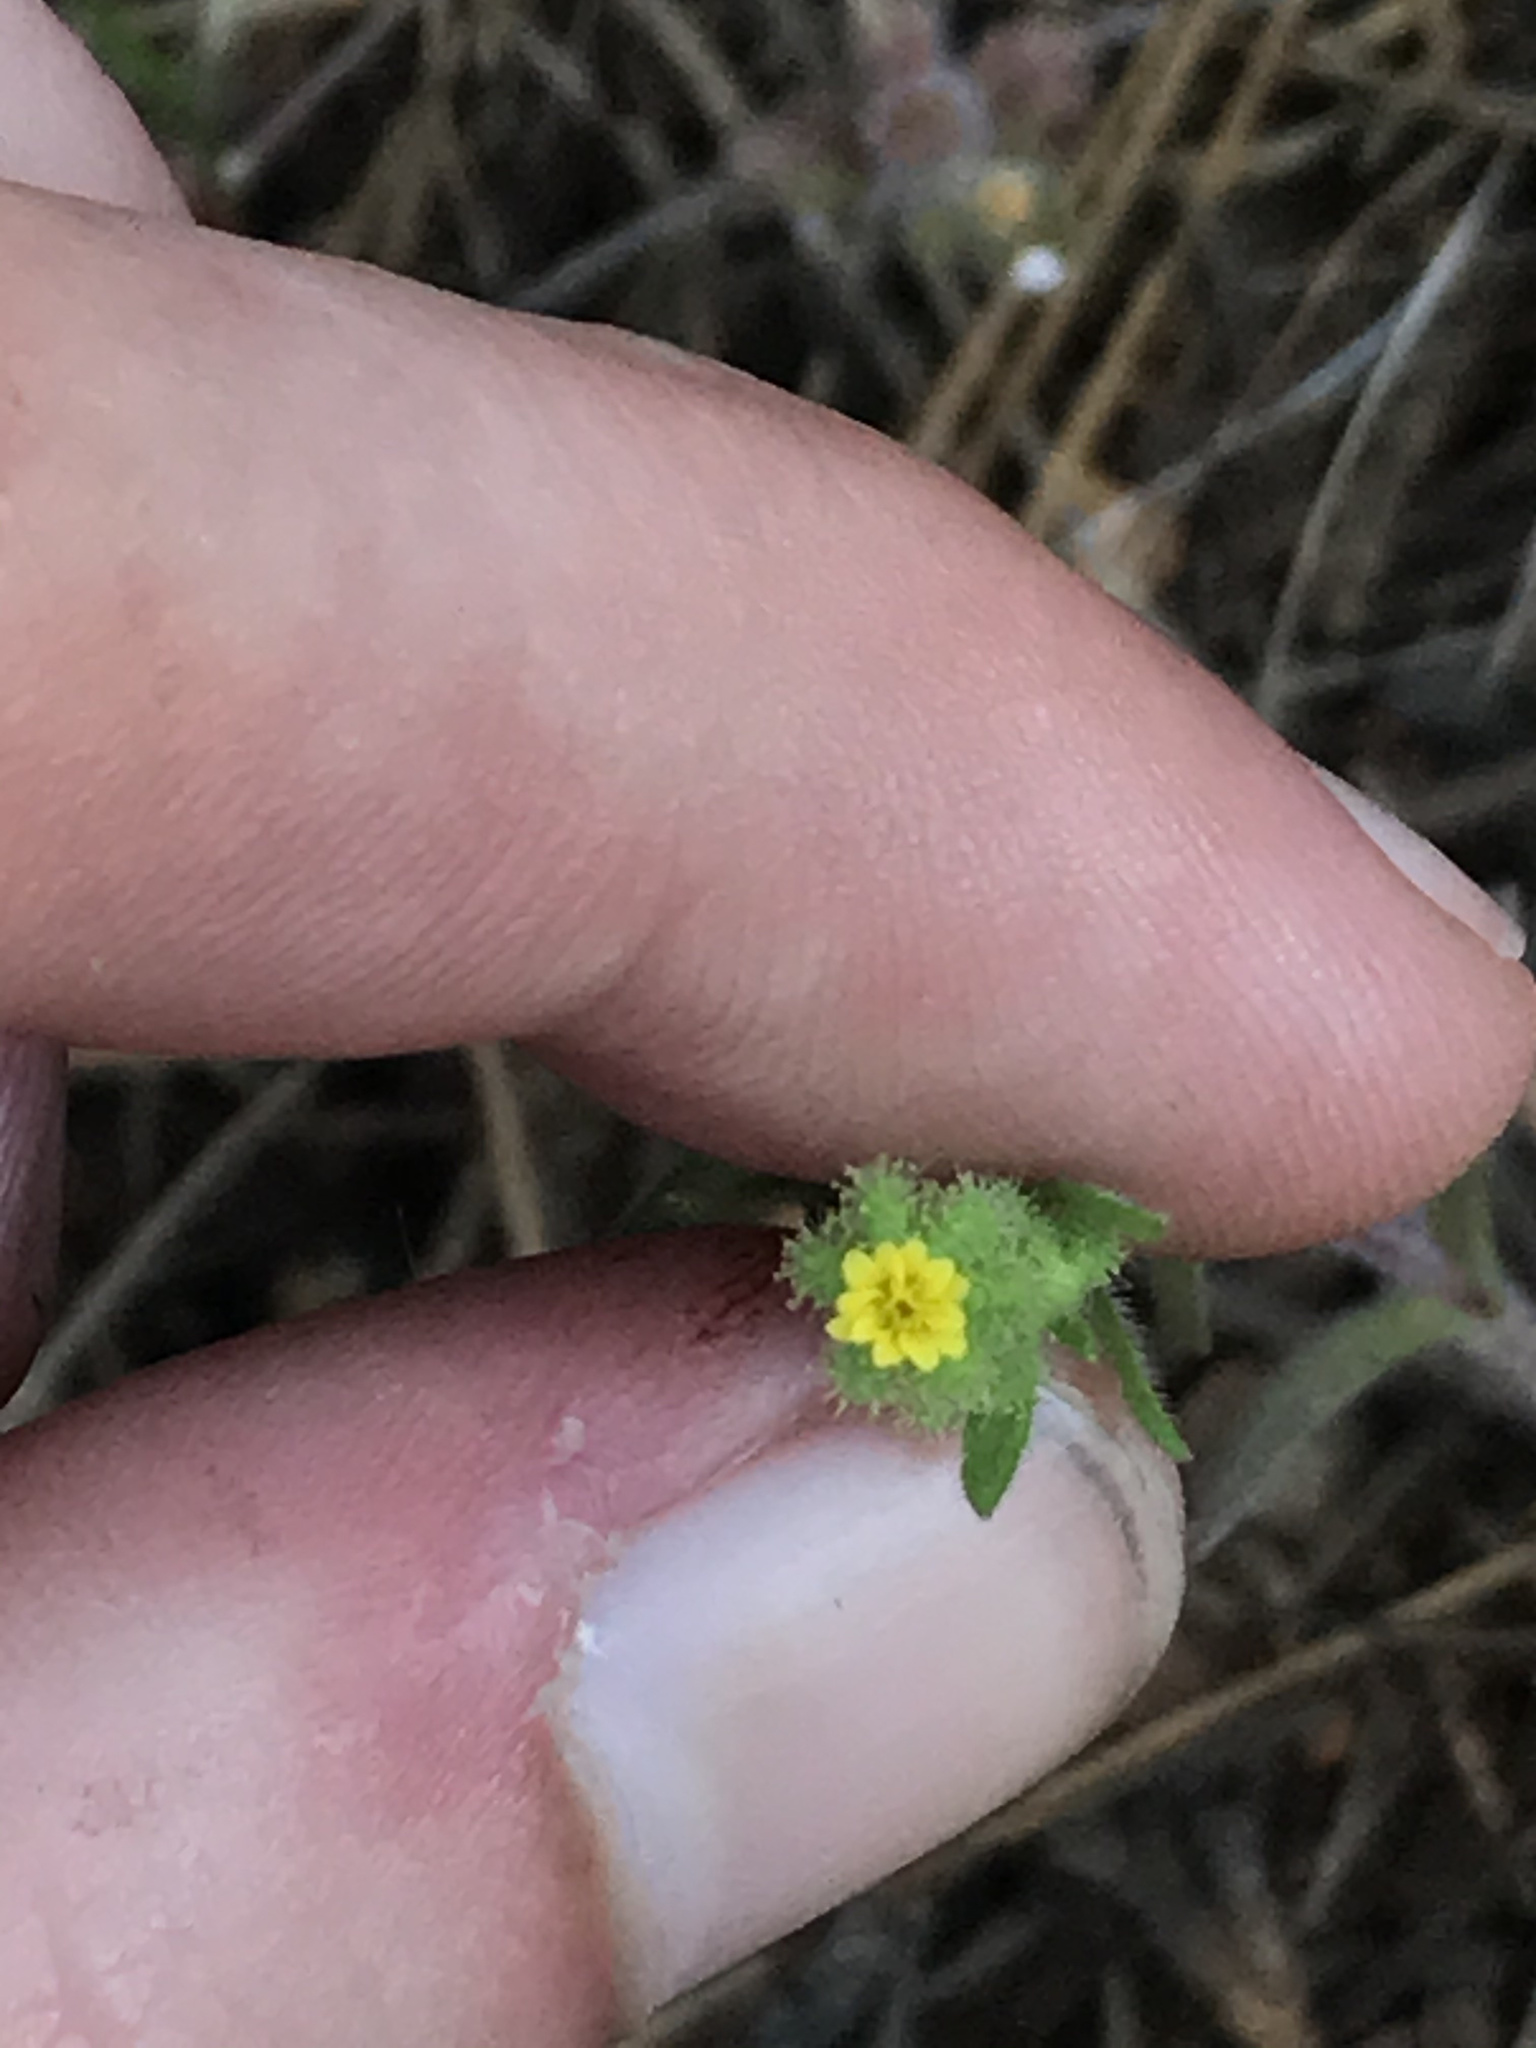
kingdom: Plantae
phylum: Tracheophyta
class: Magnoliopsida
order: Asterales
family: Asteraceae
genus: Madia
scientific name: Madia exigua
